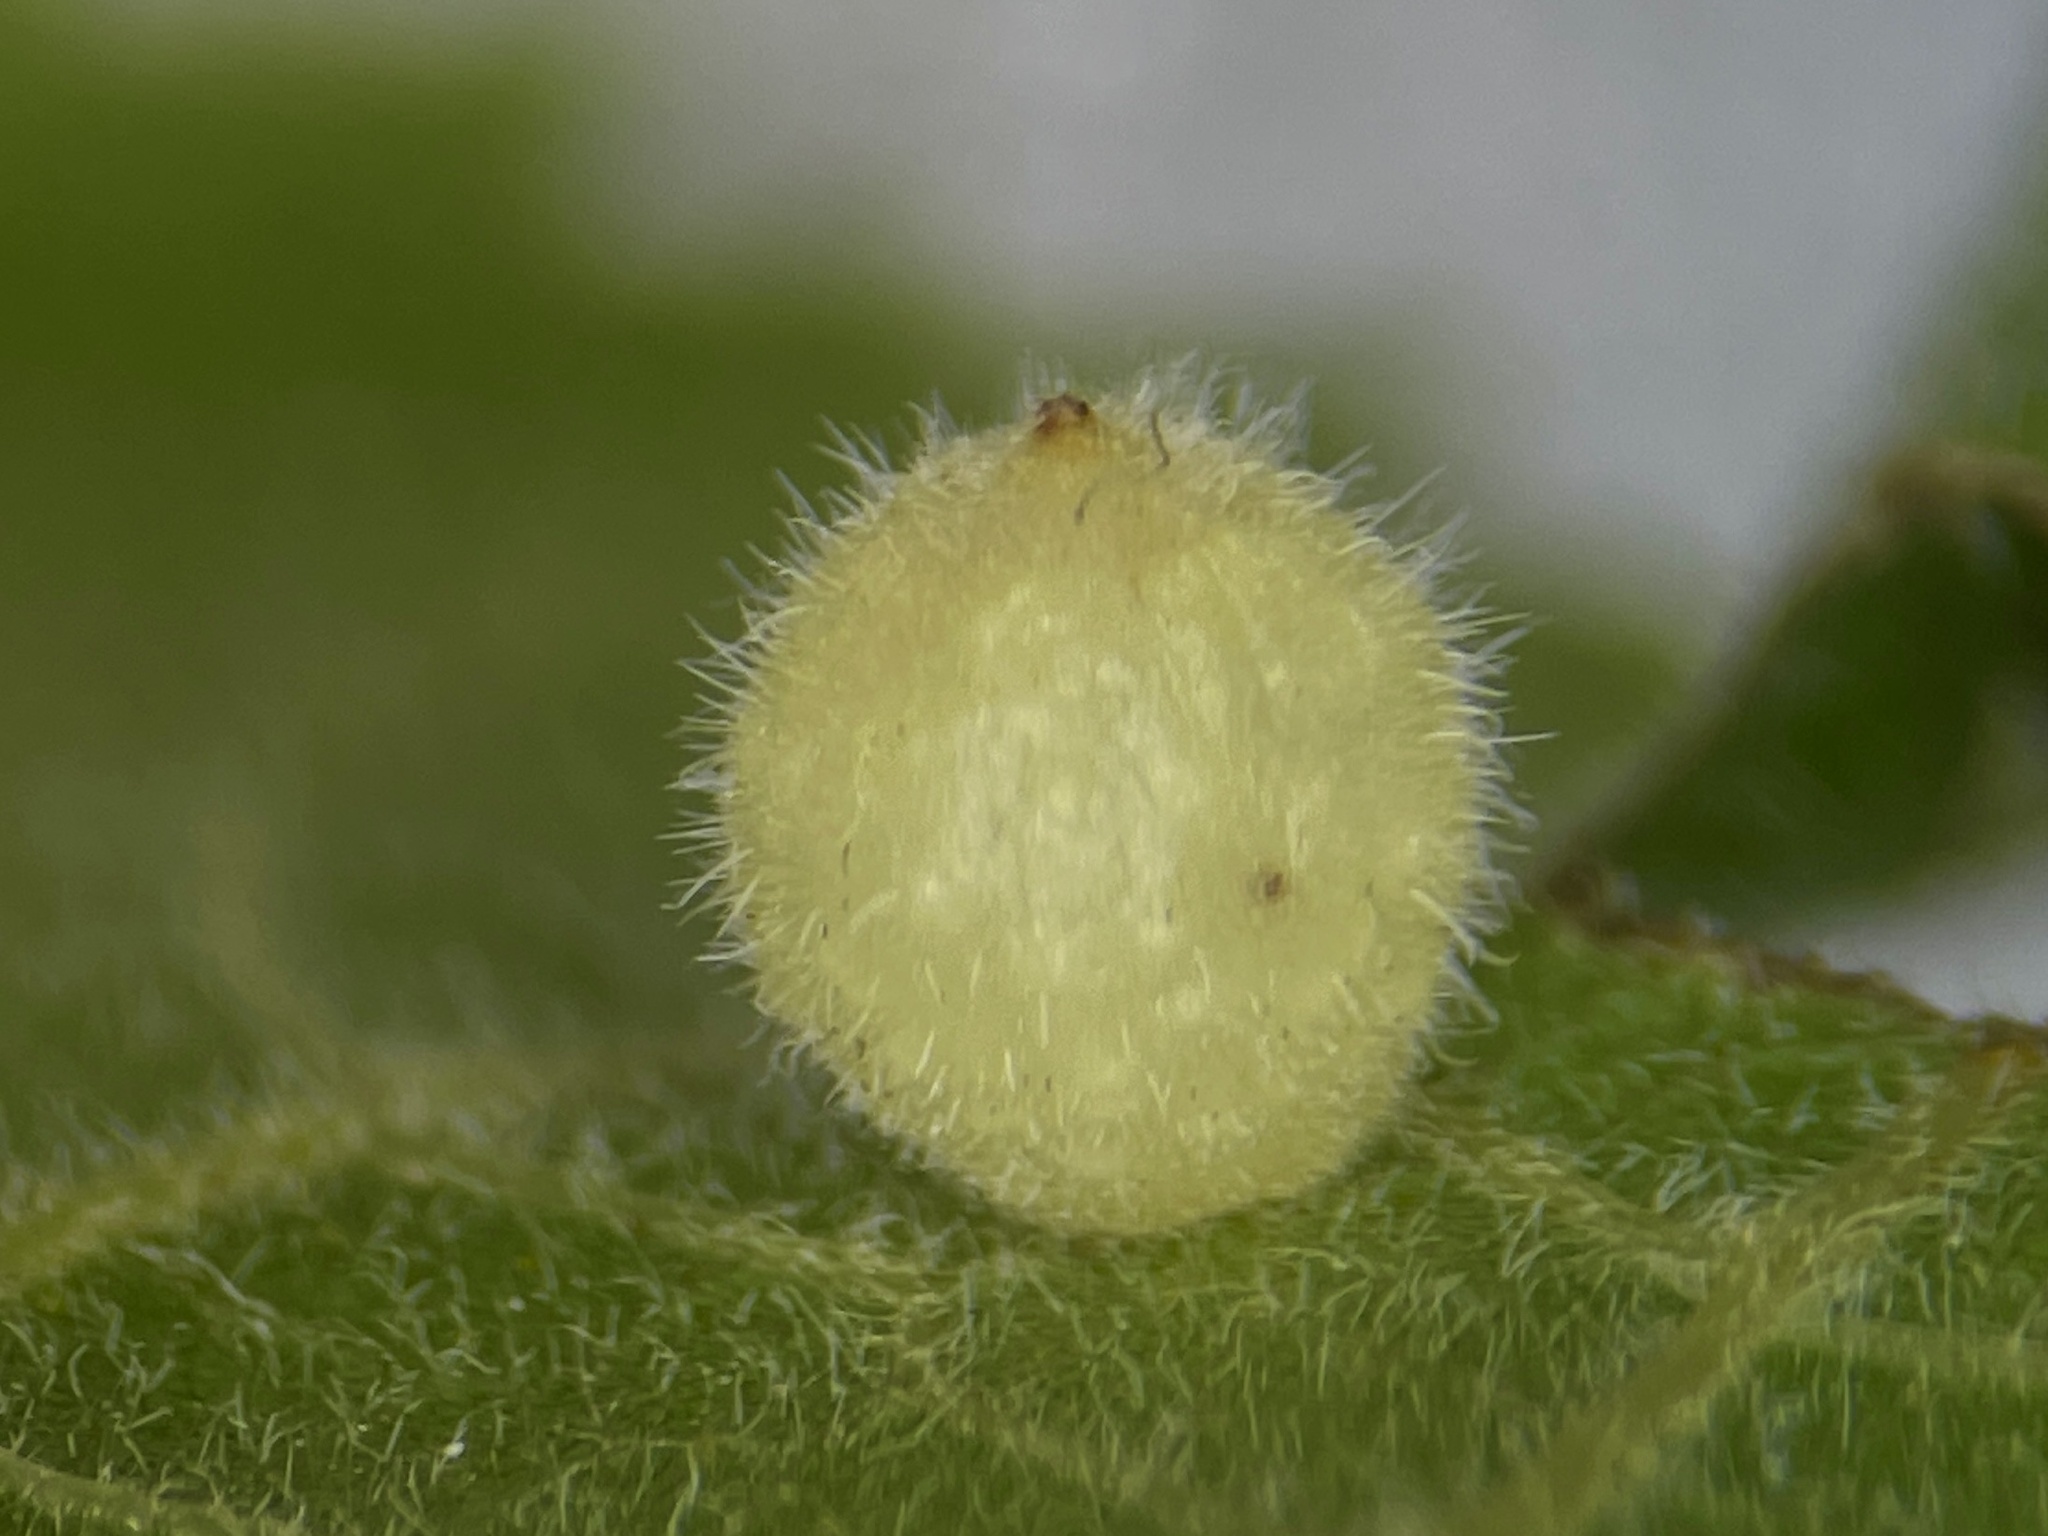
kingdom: Animalia
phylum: Arthropoda
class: Insecta
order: Diptera
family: Cecidomyiidae
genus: Caryomyia
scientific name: Caryomyia hirtidolium
